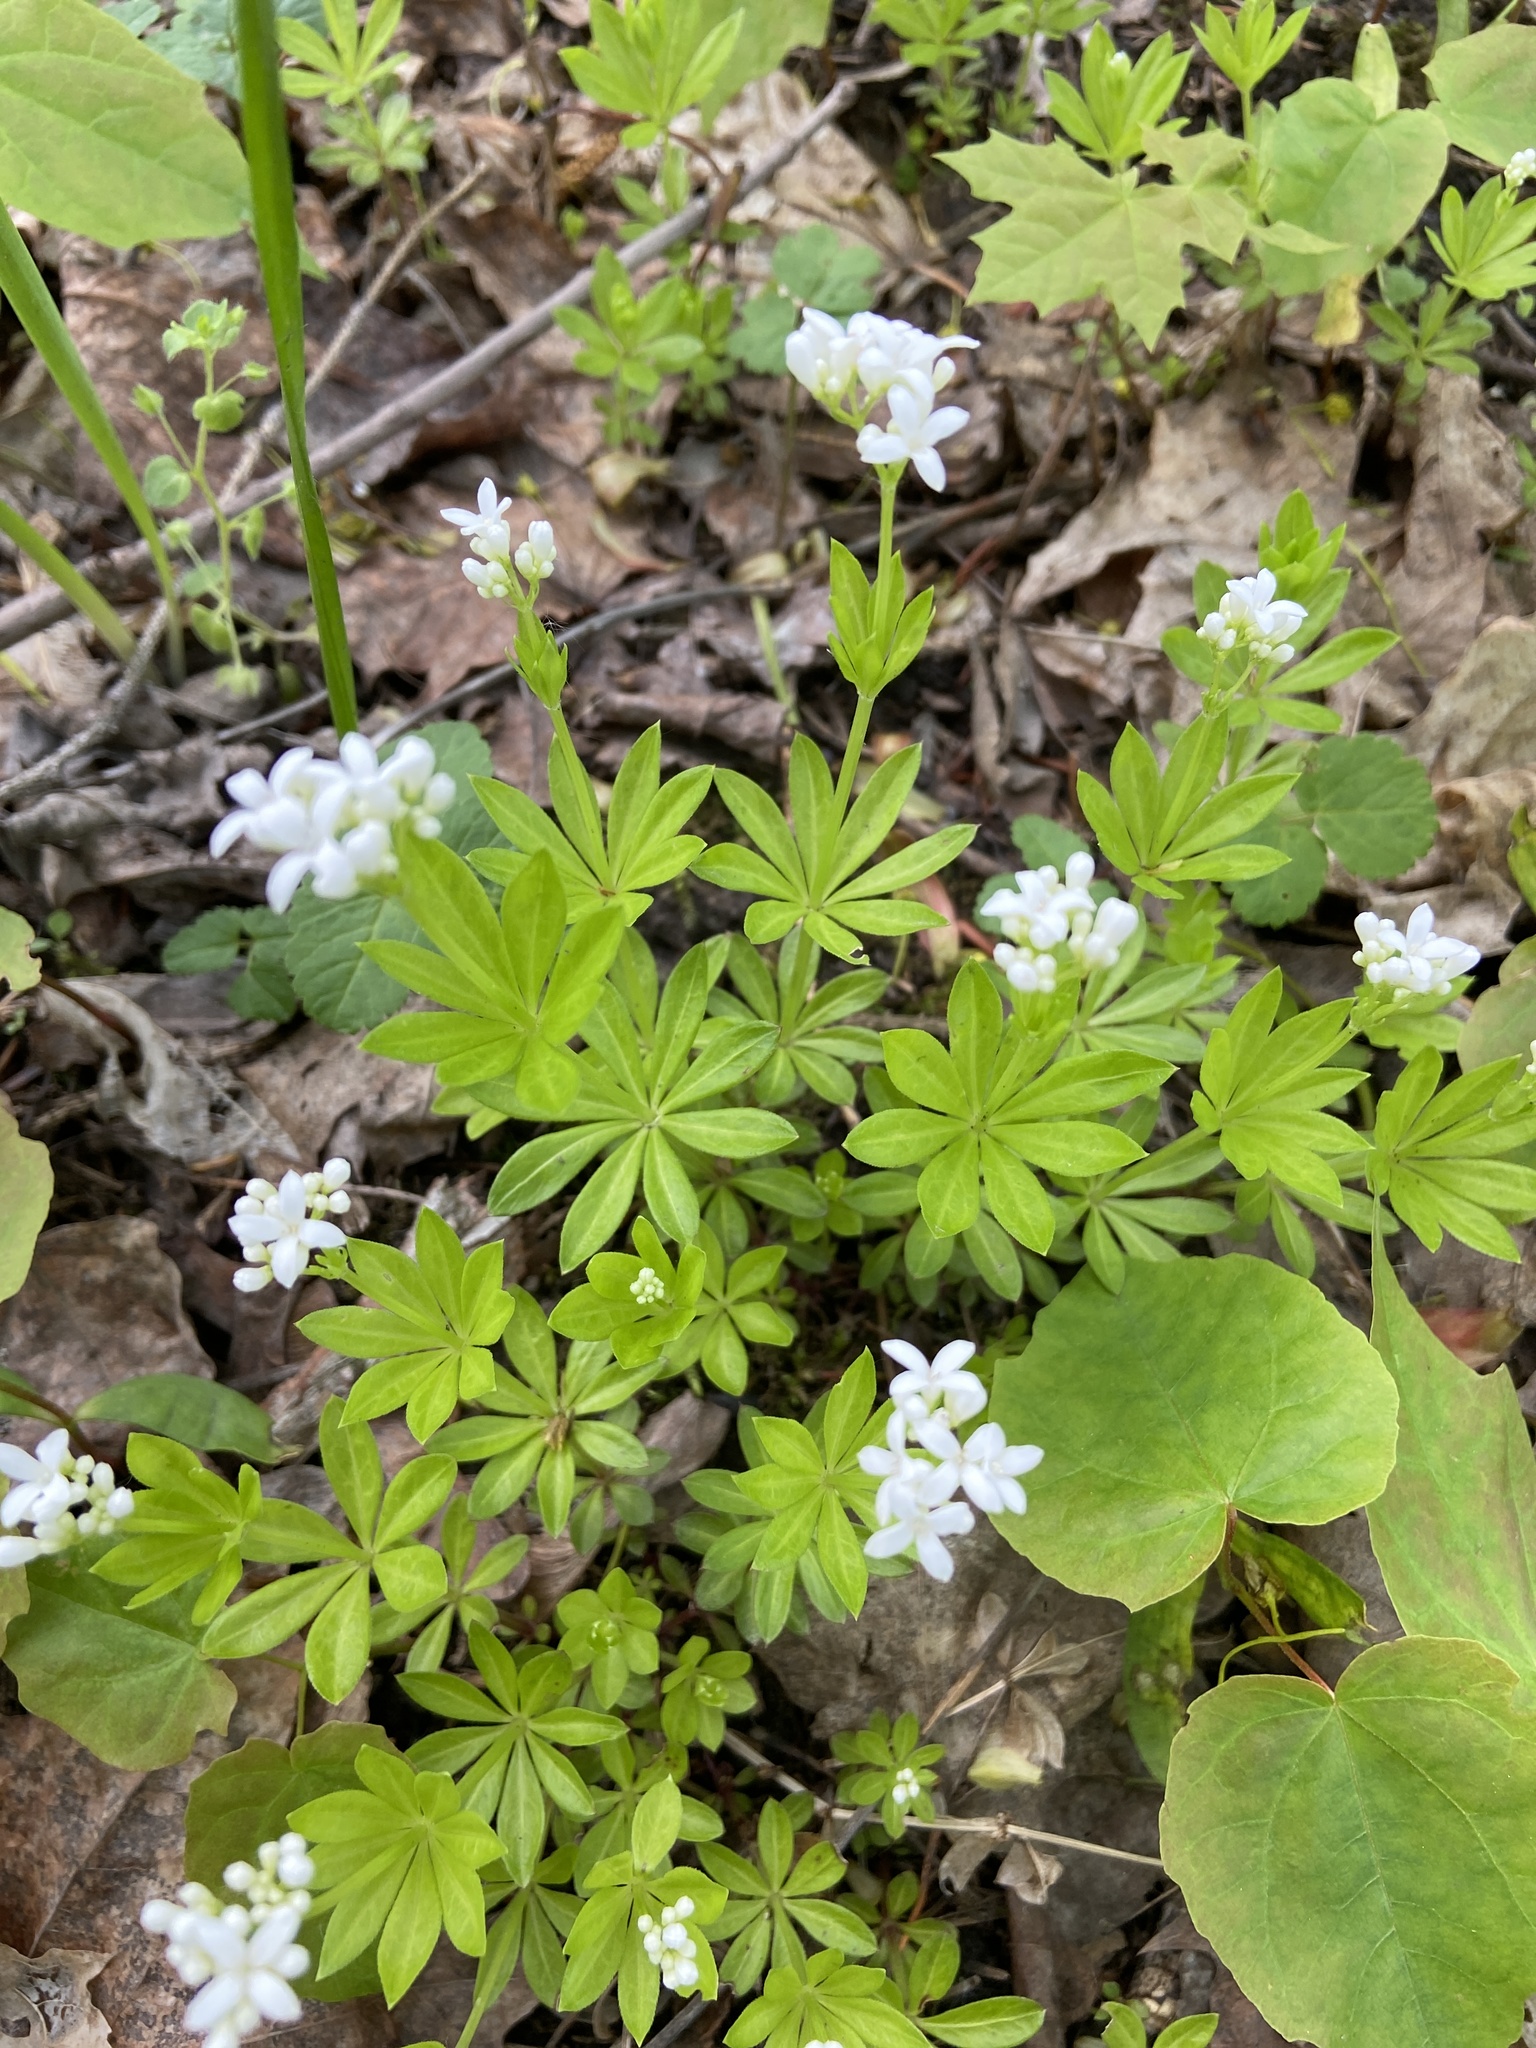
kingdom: Plantae
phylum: Tracheophyta
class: Magnoliopsida
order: Gentianales
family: Rubiaceae
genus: Galium
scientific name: Galium odoratum
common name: Sweet woodruff
